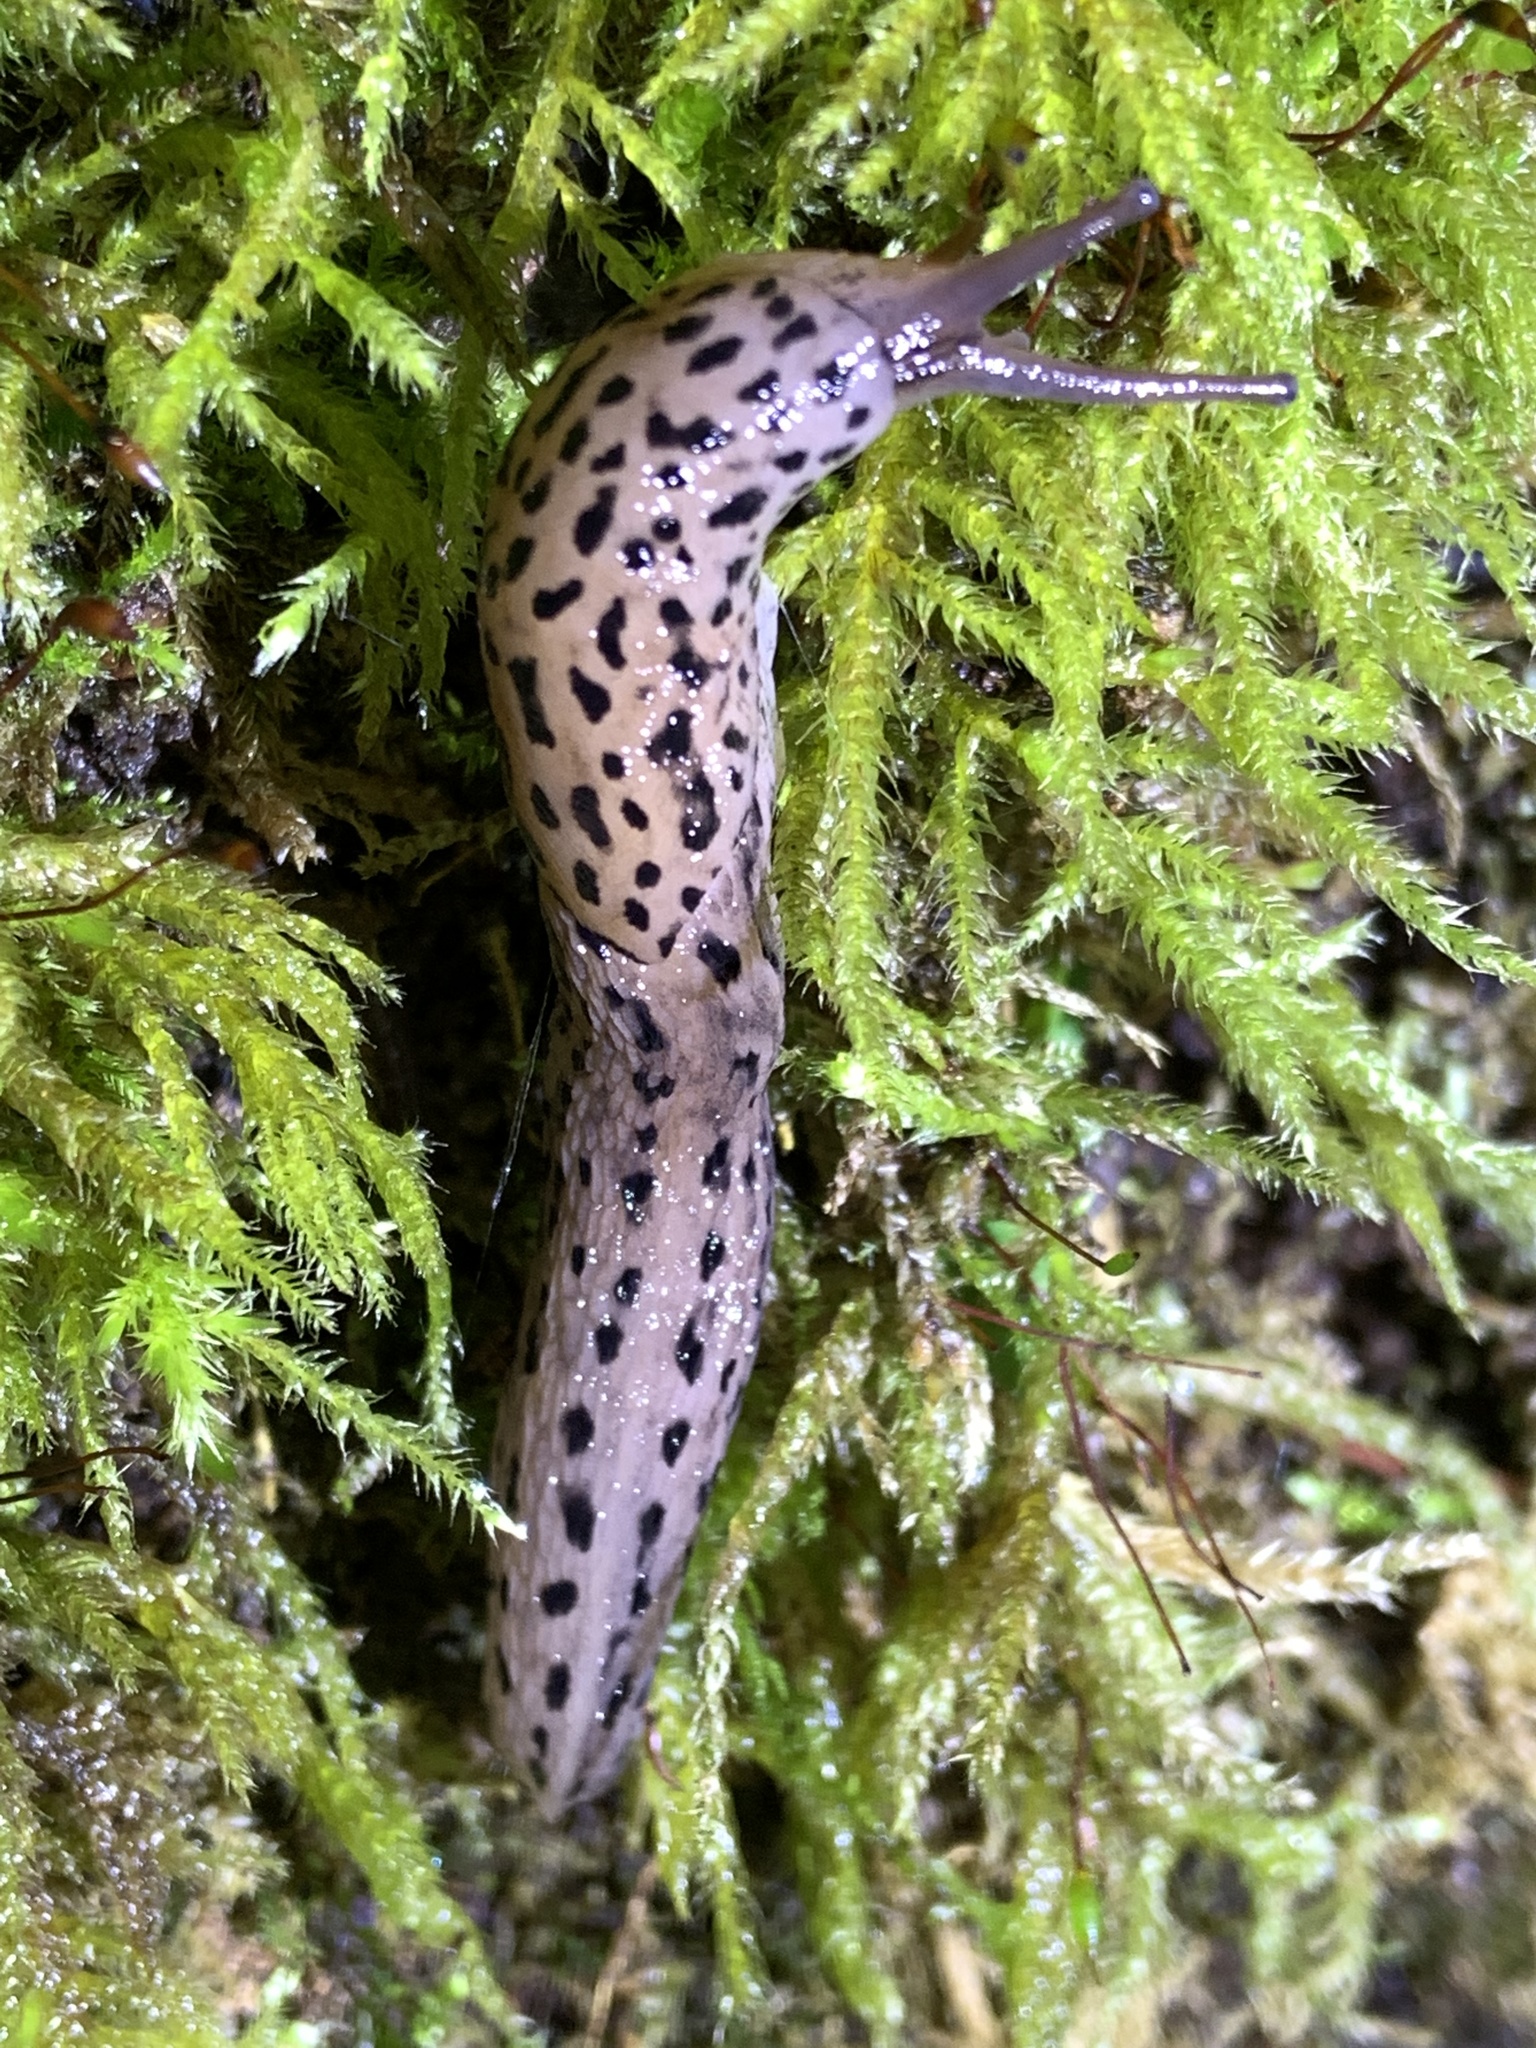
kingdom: Animalia
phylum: Mollusca
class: Gastropoda
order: Stylommatophora
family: Limacidae
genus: Limax
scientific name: Limax maximus
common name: Great grey slug
